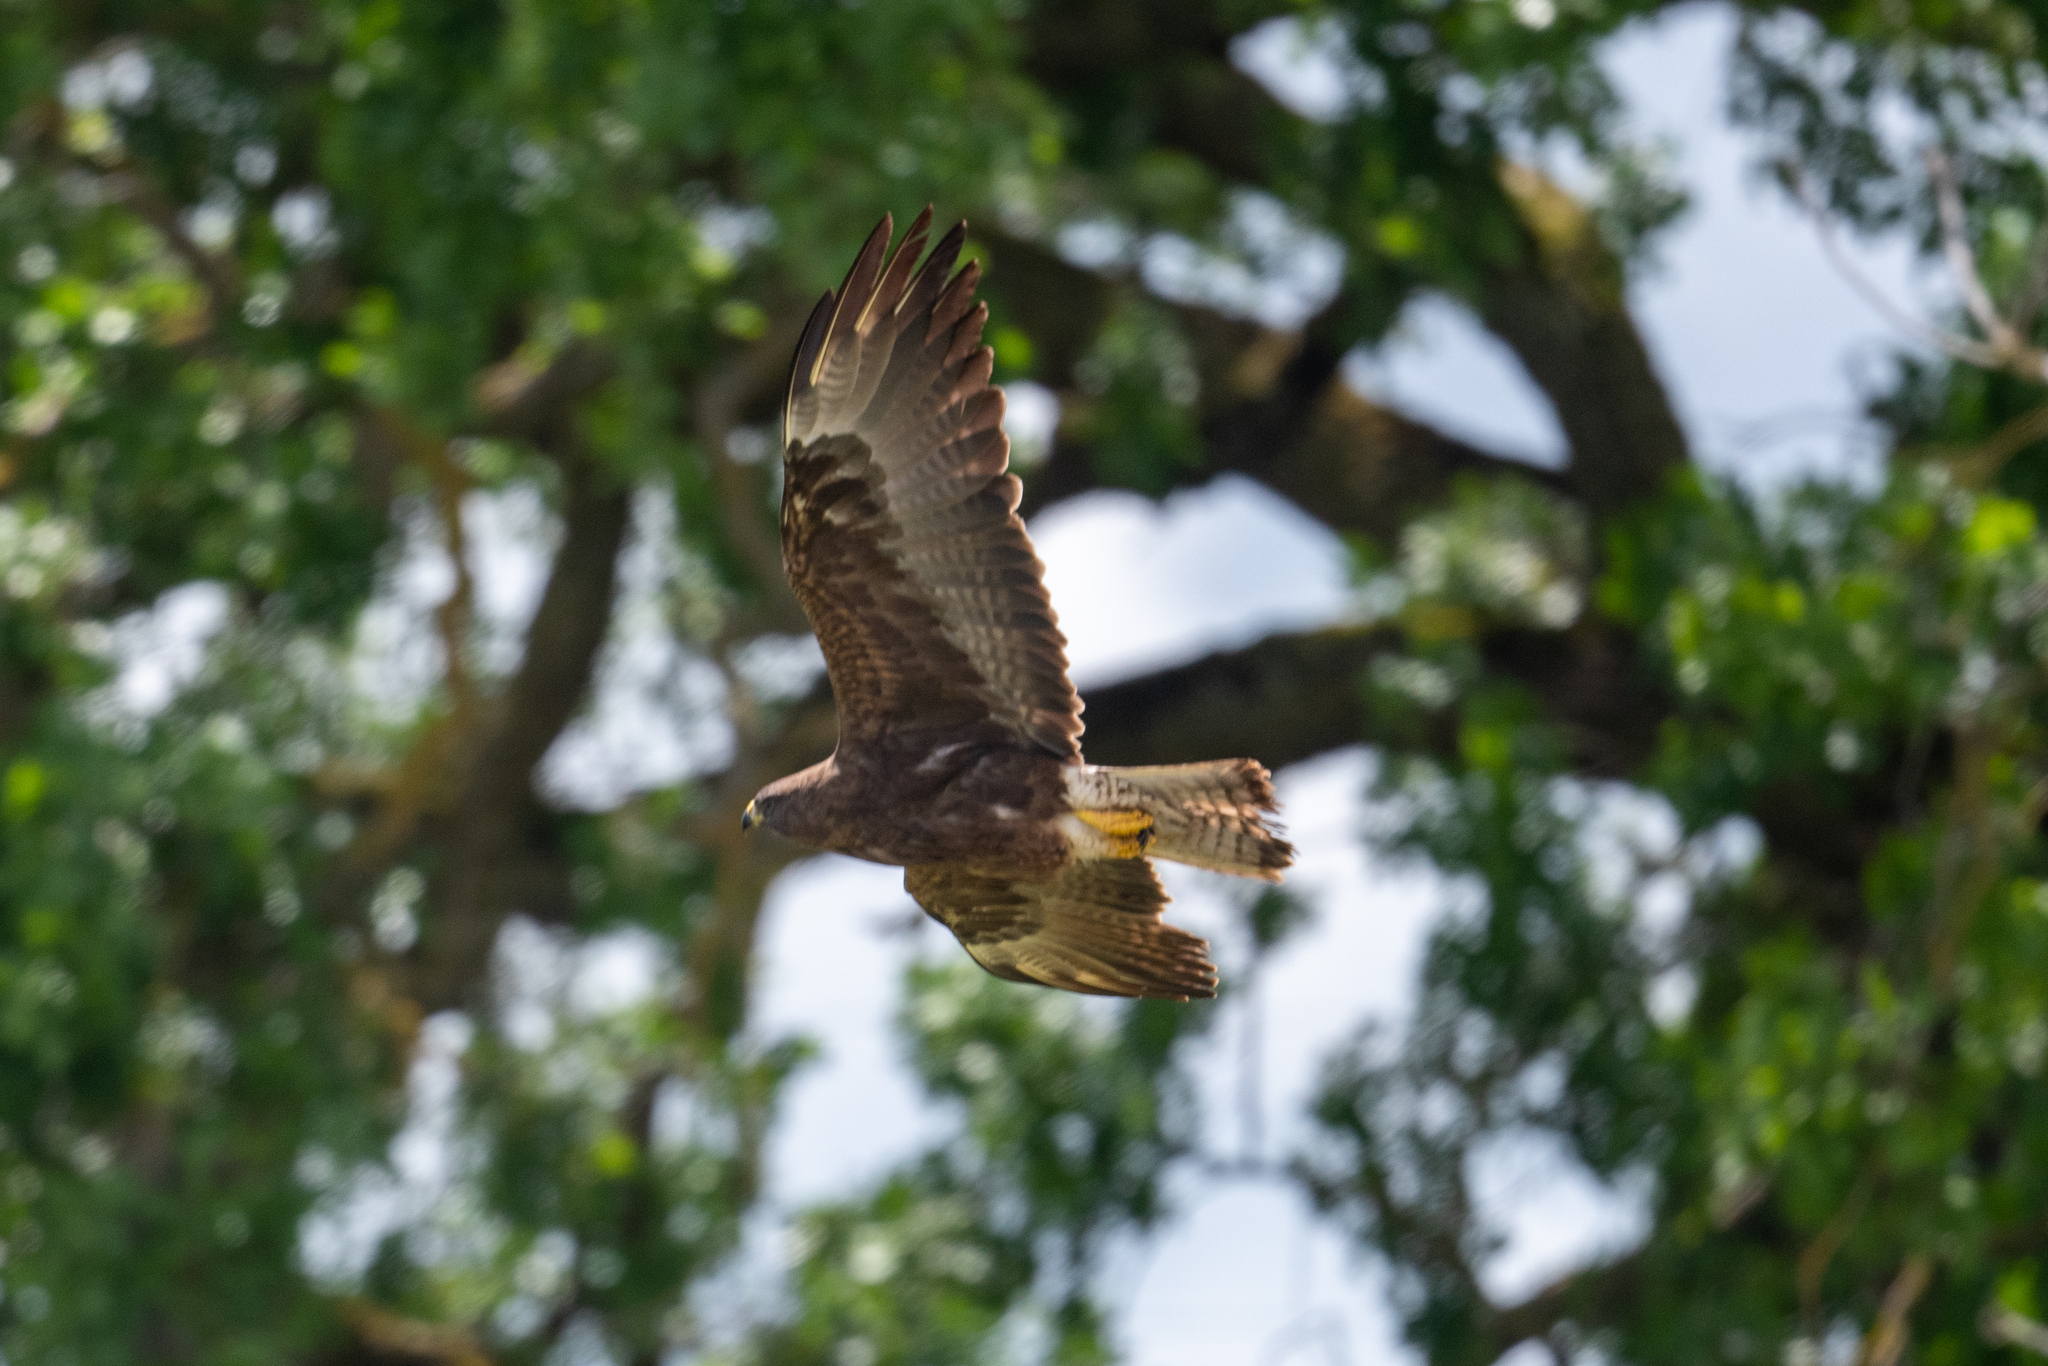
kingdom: Animalia
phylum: Chordata
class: Aves
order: Accipitriformes
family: Accipitridae
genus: Buteo
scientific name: Buteo swainsoni
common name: Swainson's hawk
